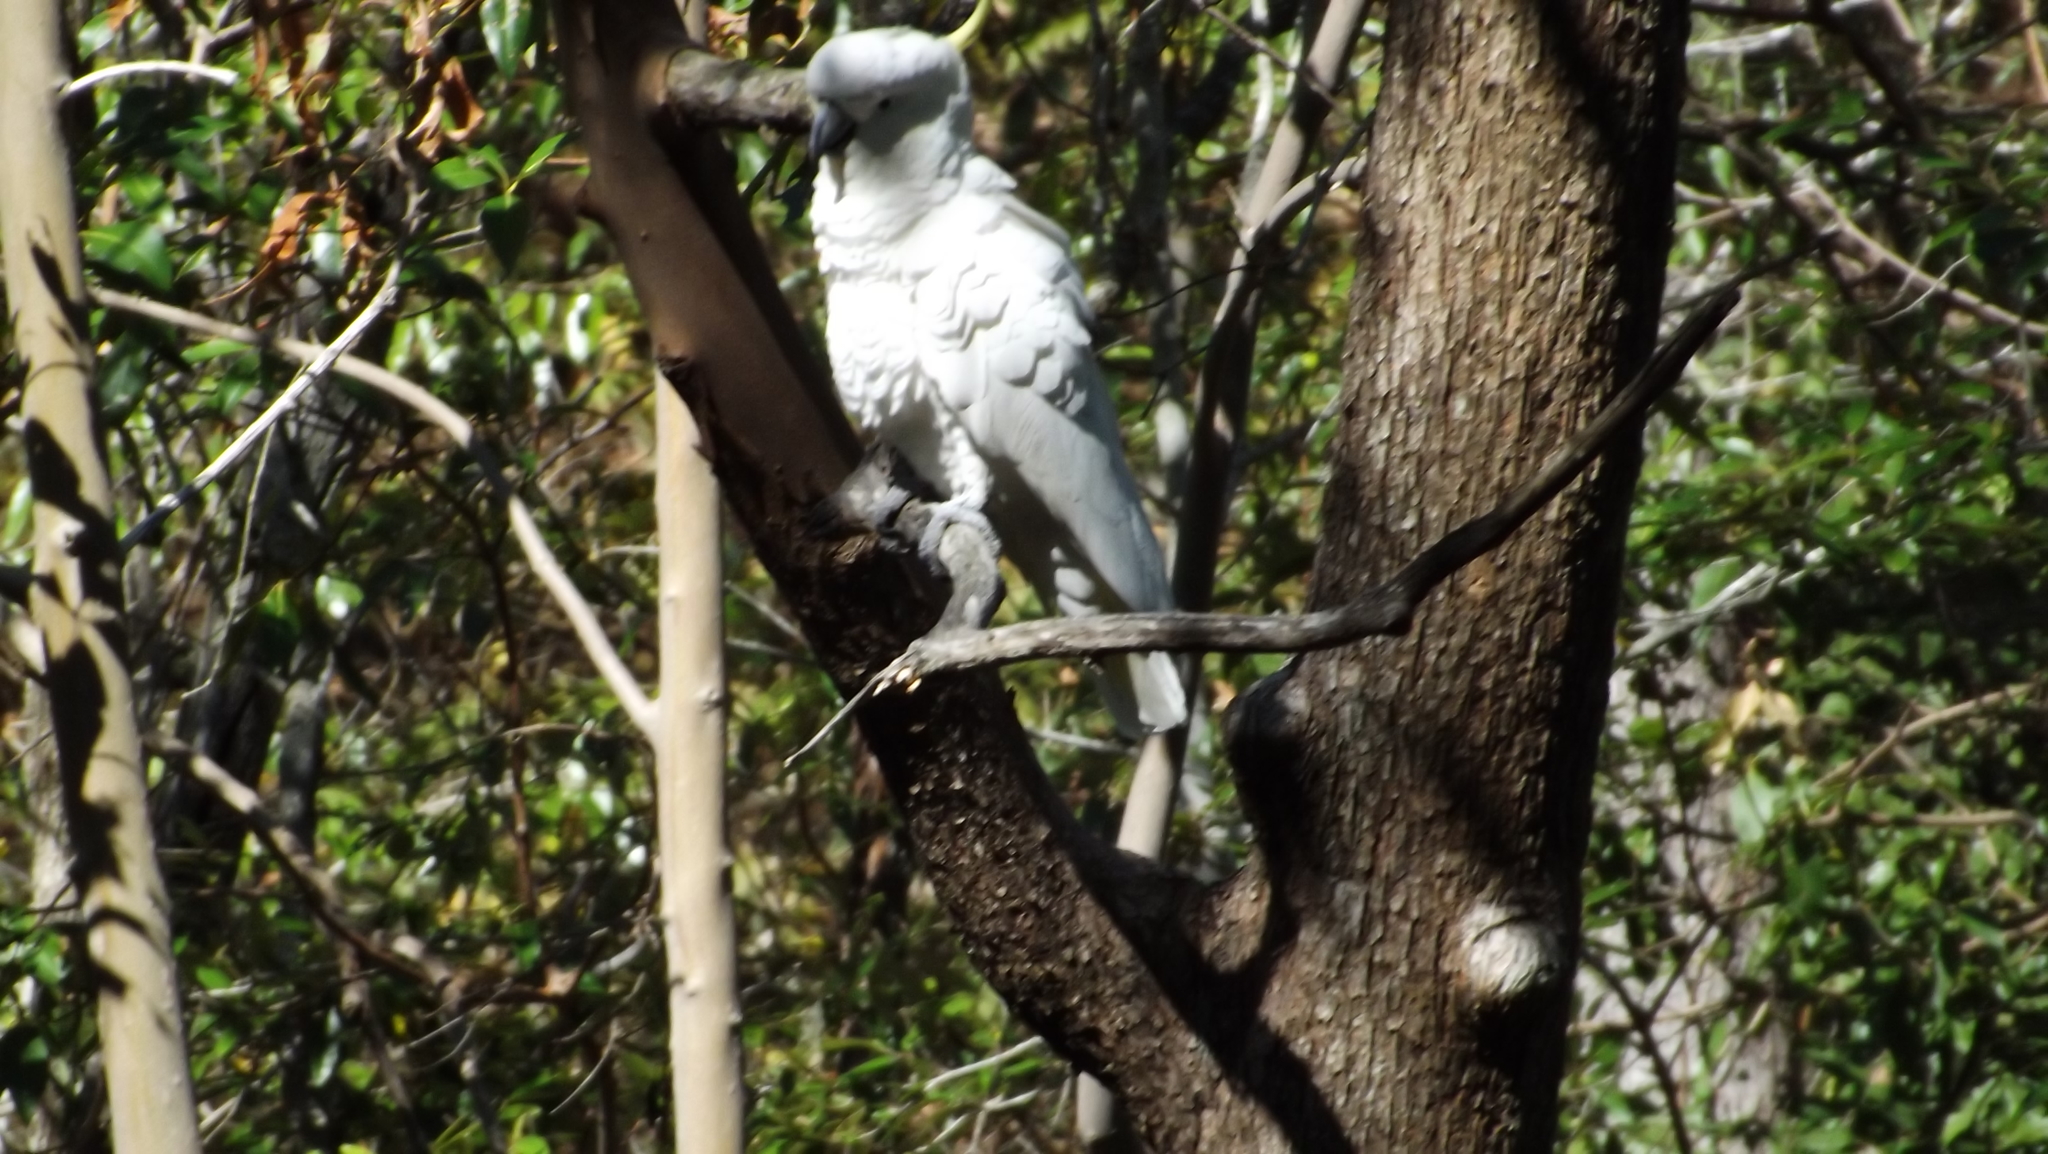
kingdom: Animalia
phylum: Chordata
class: Aves
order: Psittaciformes
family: Psittacidae
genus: Cacatua
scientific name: Cacatua galerita
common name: Sulphur-crested cockatoo
